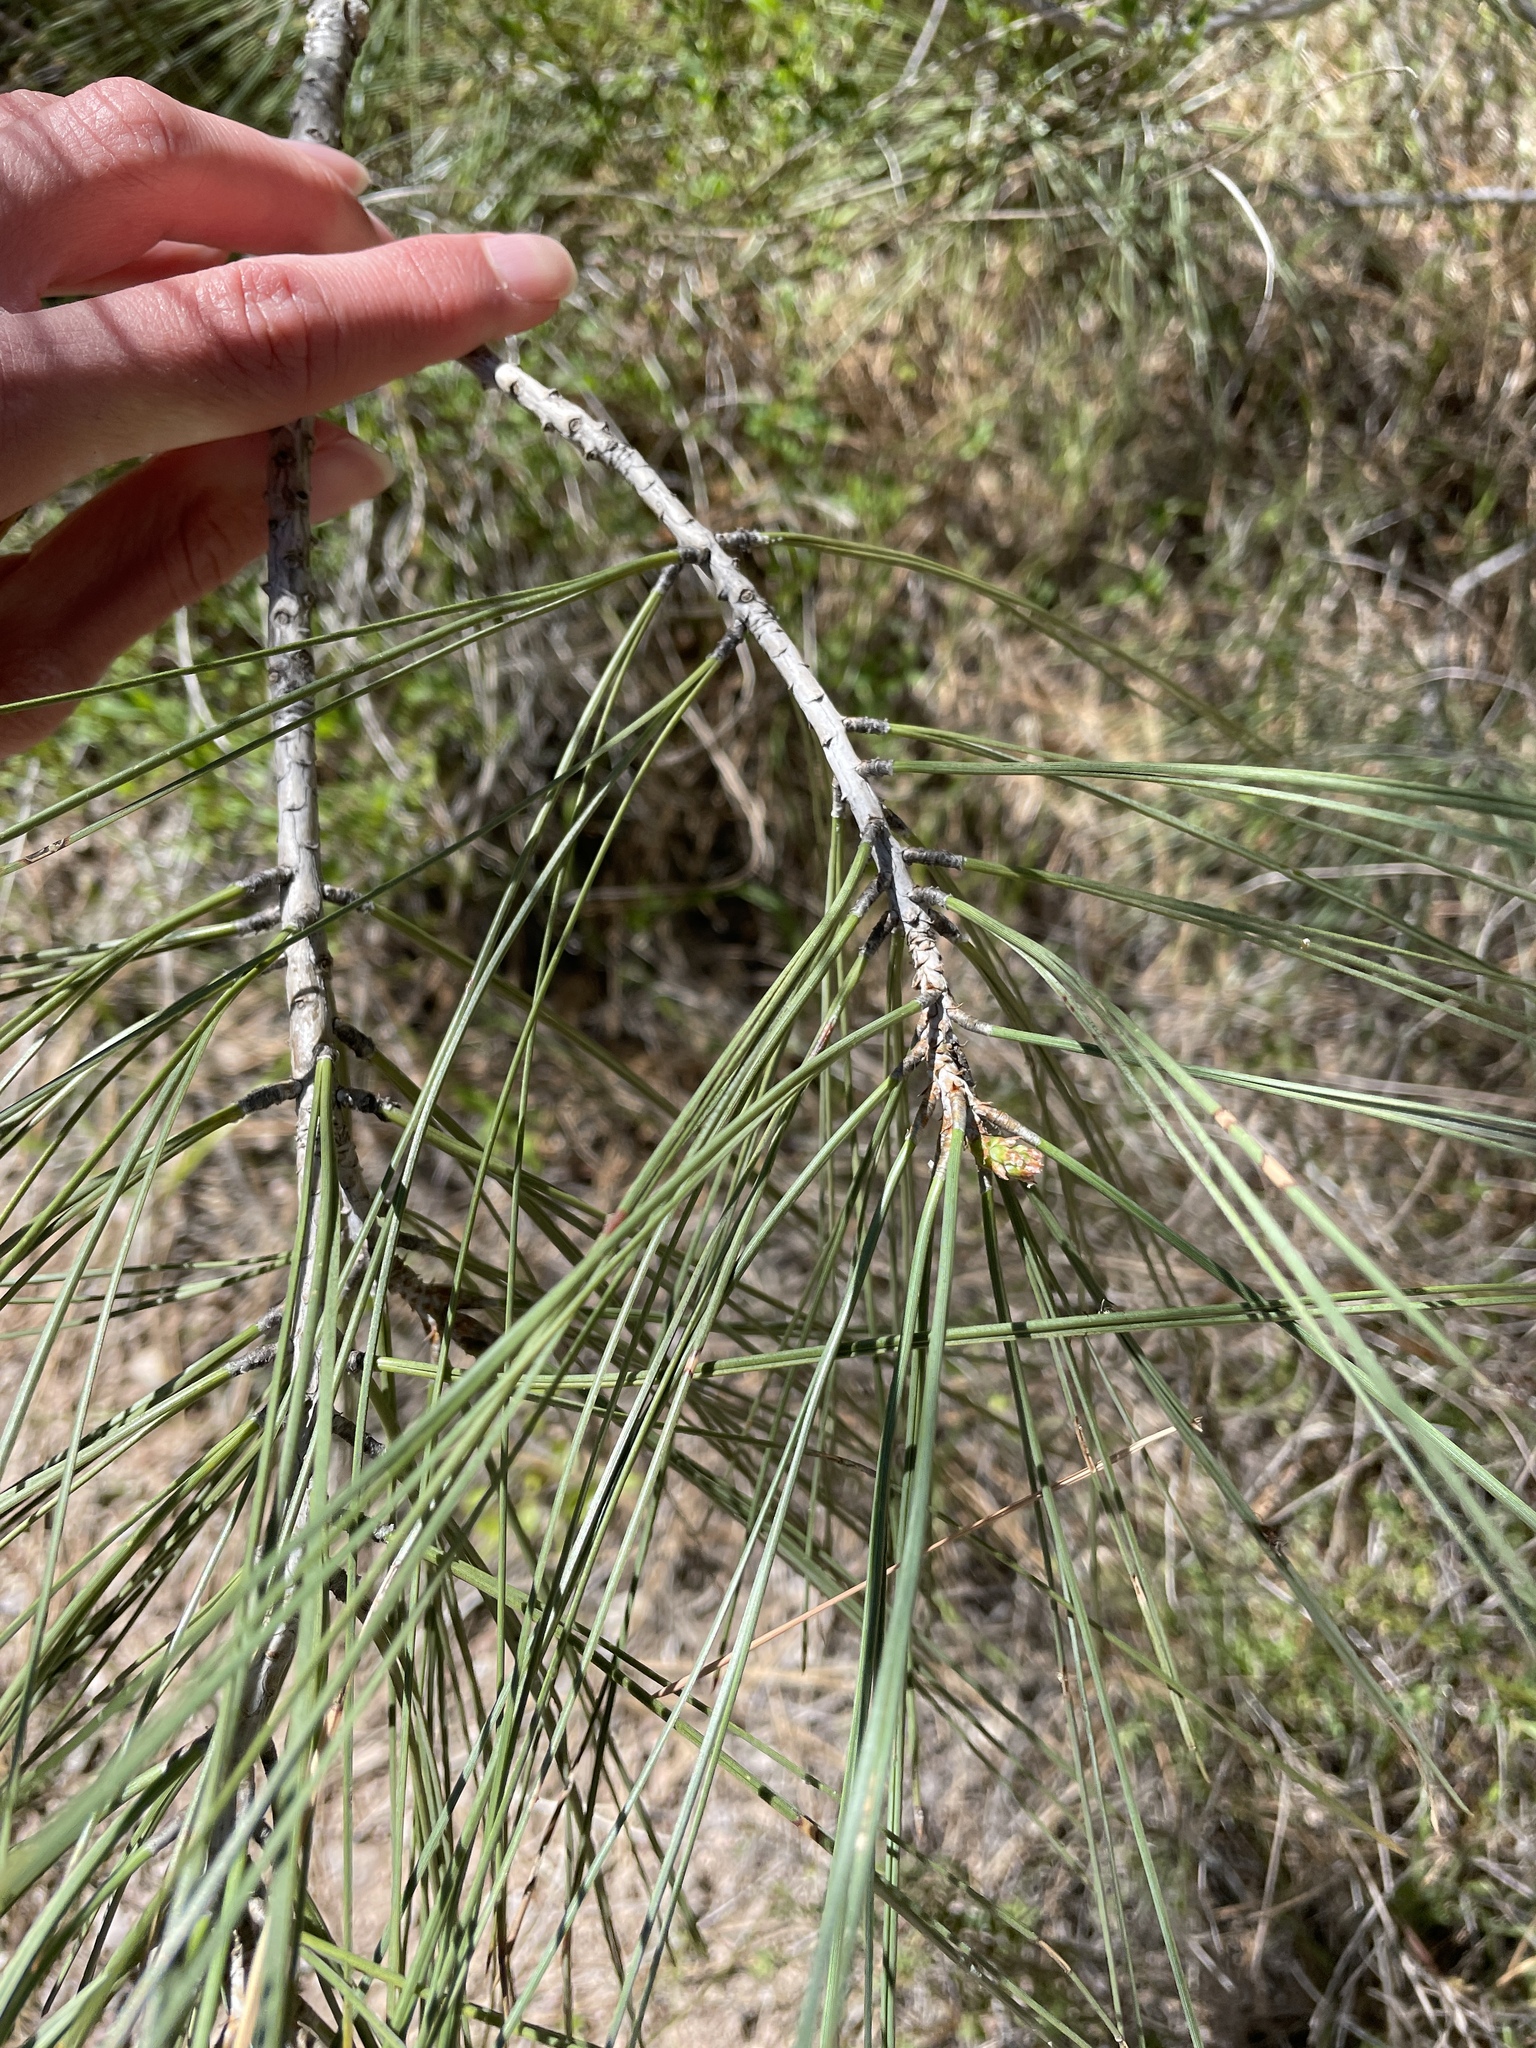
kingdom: Plantae
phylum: Tracheophyta
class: Pinopsida
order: Pinales
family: Pinaceae
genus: Pinus
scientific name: Pinus sabiniana
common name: Bull pine
